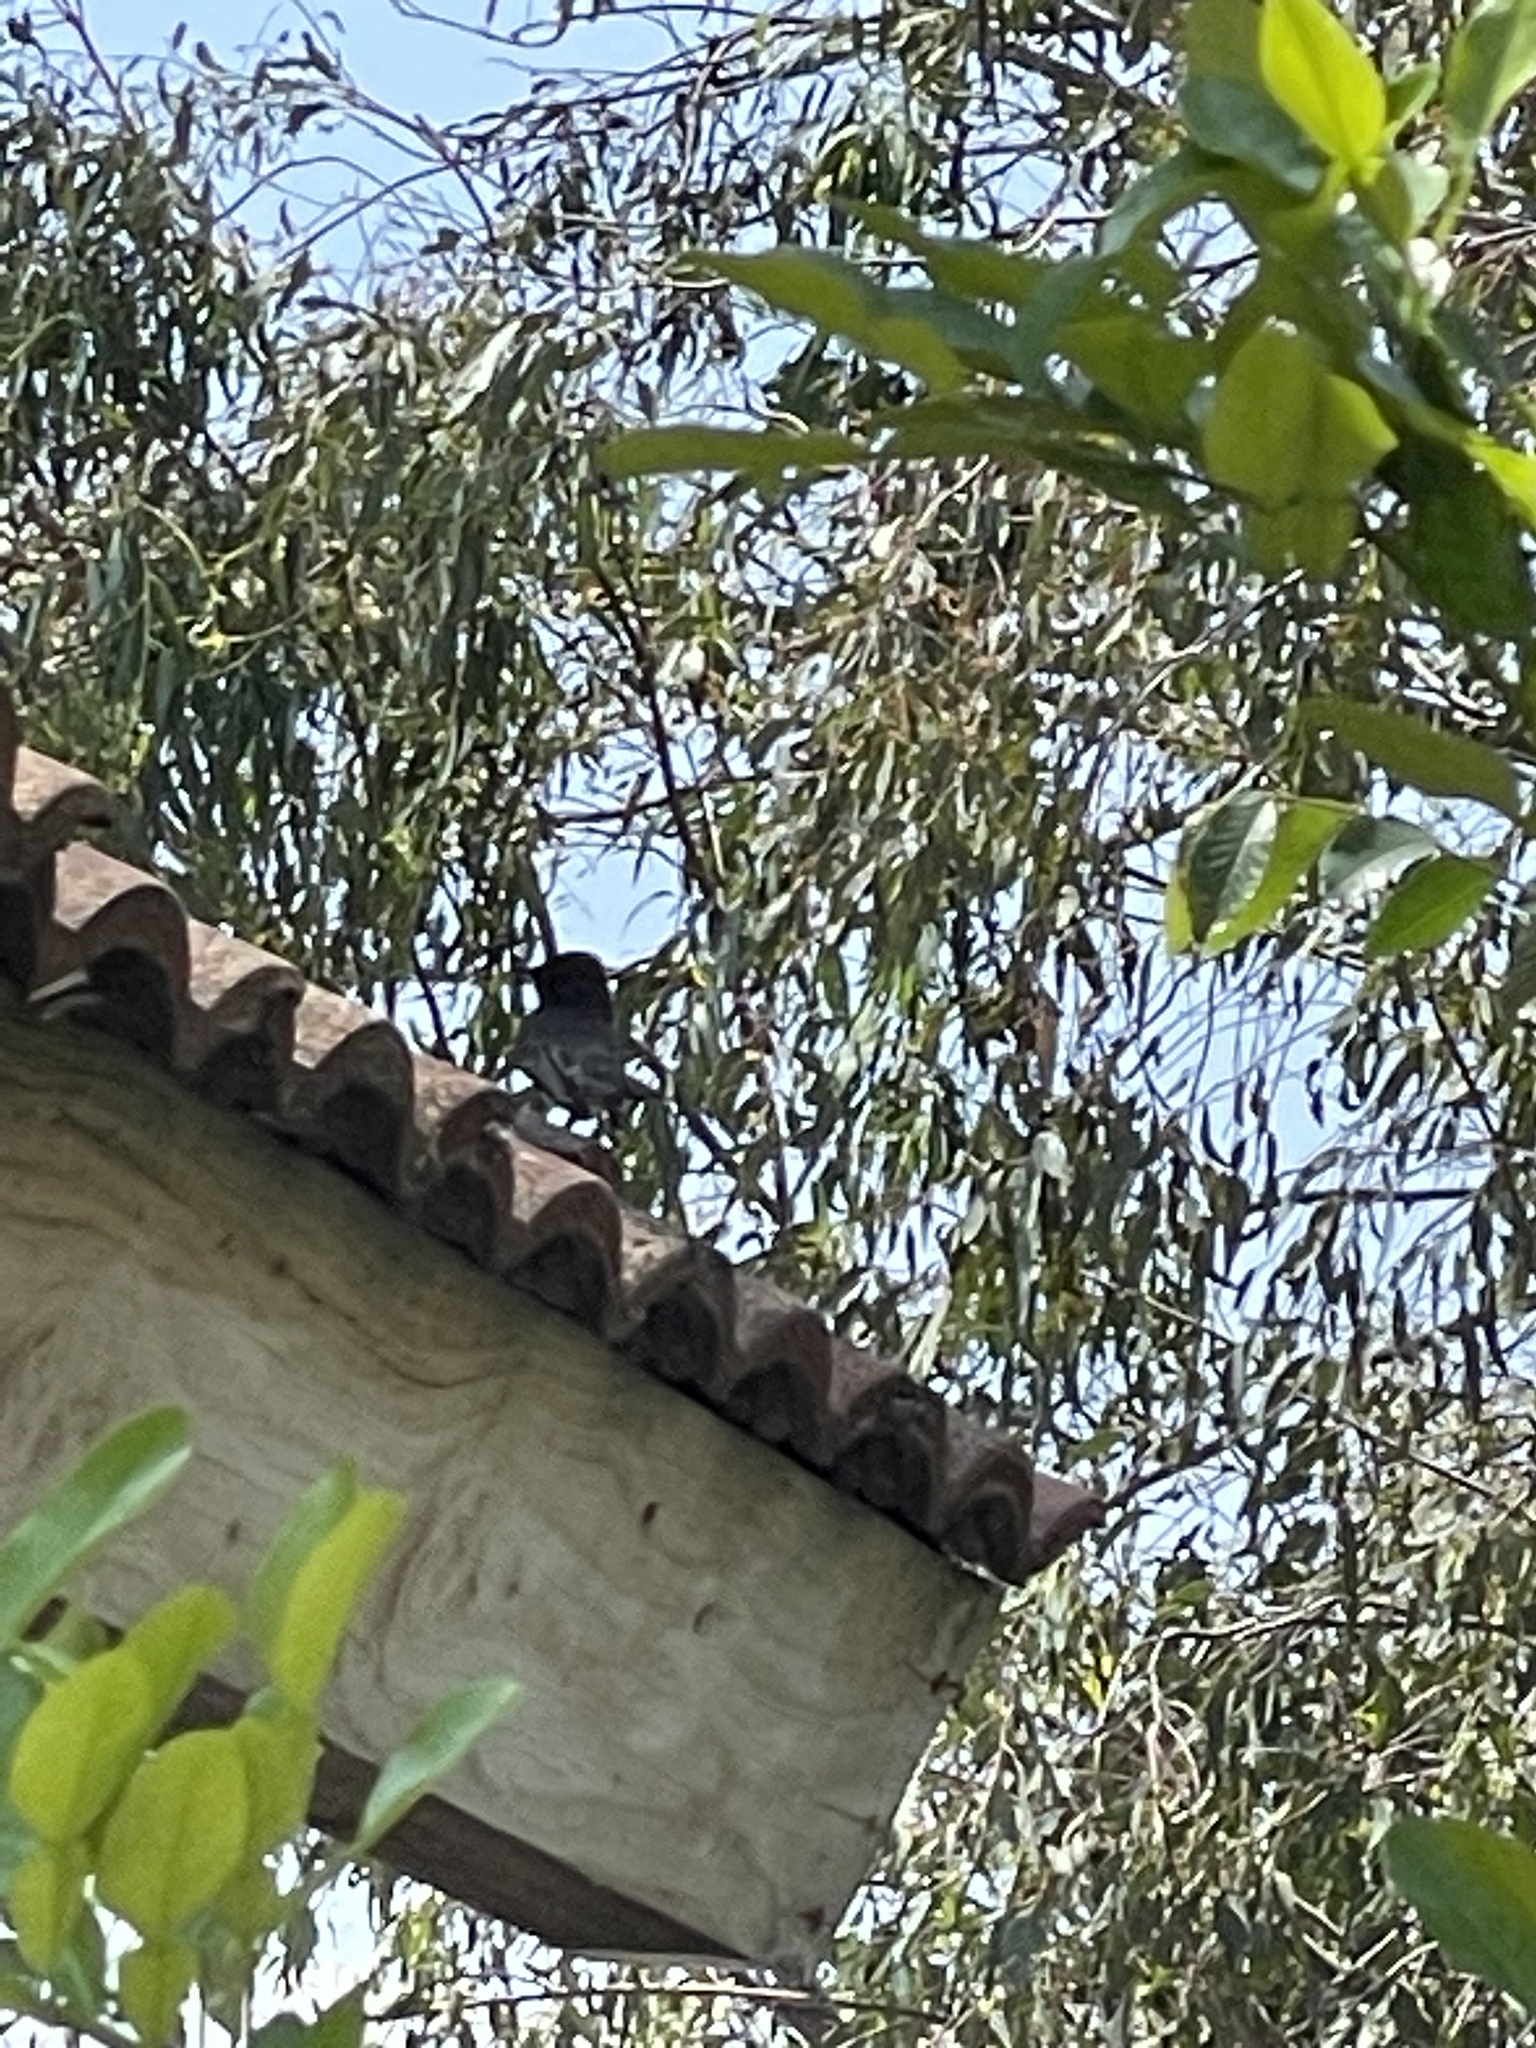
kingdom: Animalia
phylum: Chordata
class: Aves
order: Passeriformes
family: Tyrannidae
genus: Sayornis
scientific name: Sayornis nigricans
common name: Black phoebe
